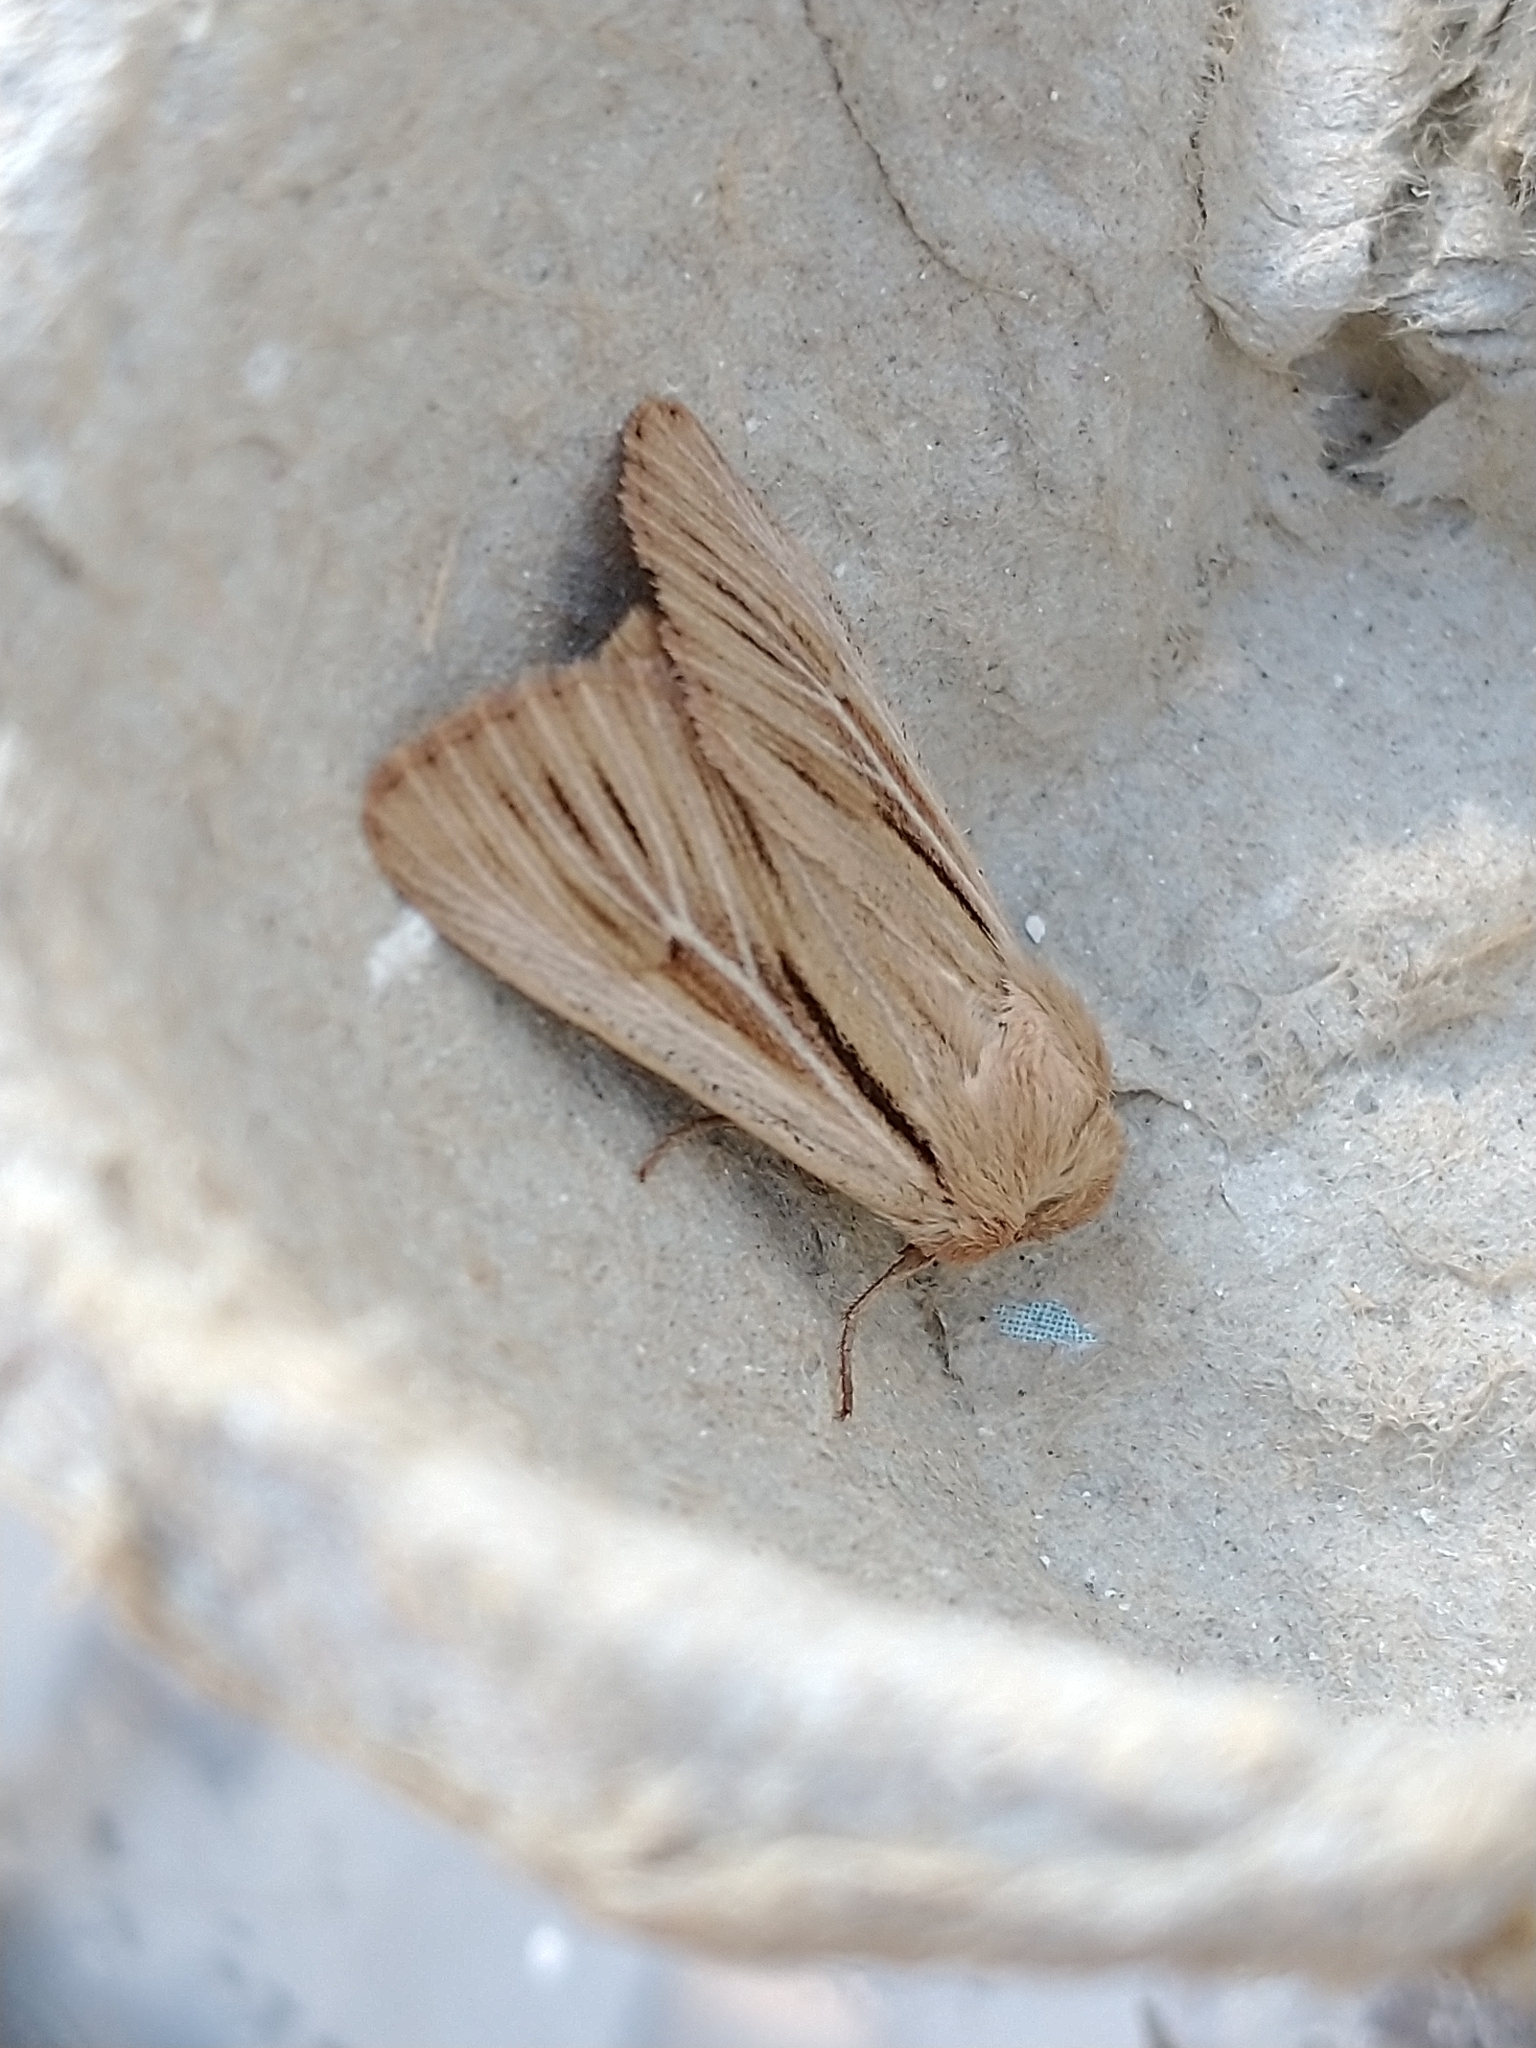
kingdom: Animalia
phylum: Arthropoda
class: Insecta
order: Lepidoptera
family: Noctuidae
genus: Leucania
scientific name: Leucania comma
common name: Shoulder-striped wainscot
